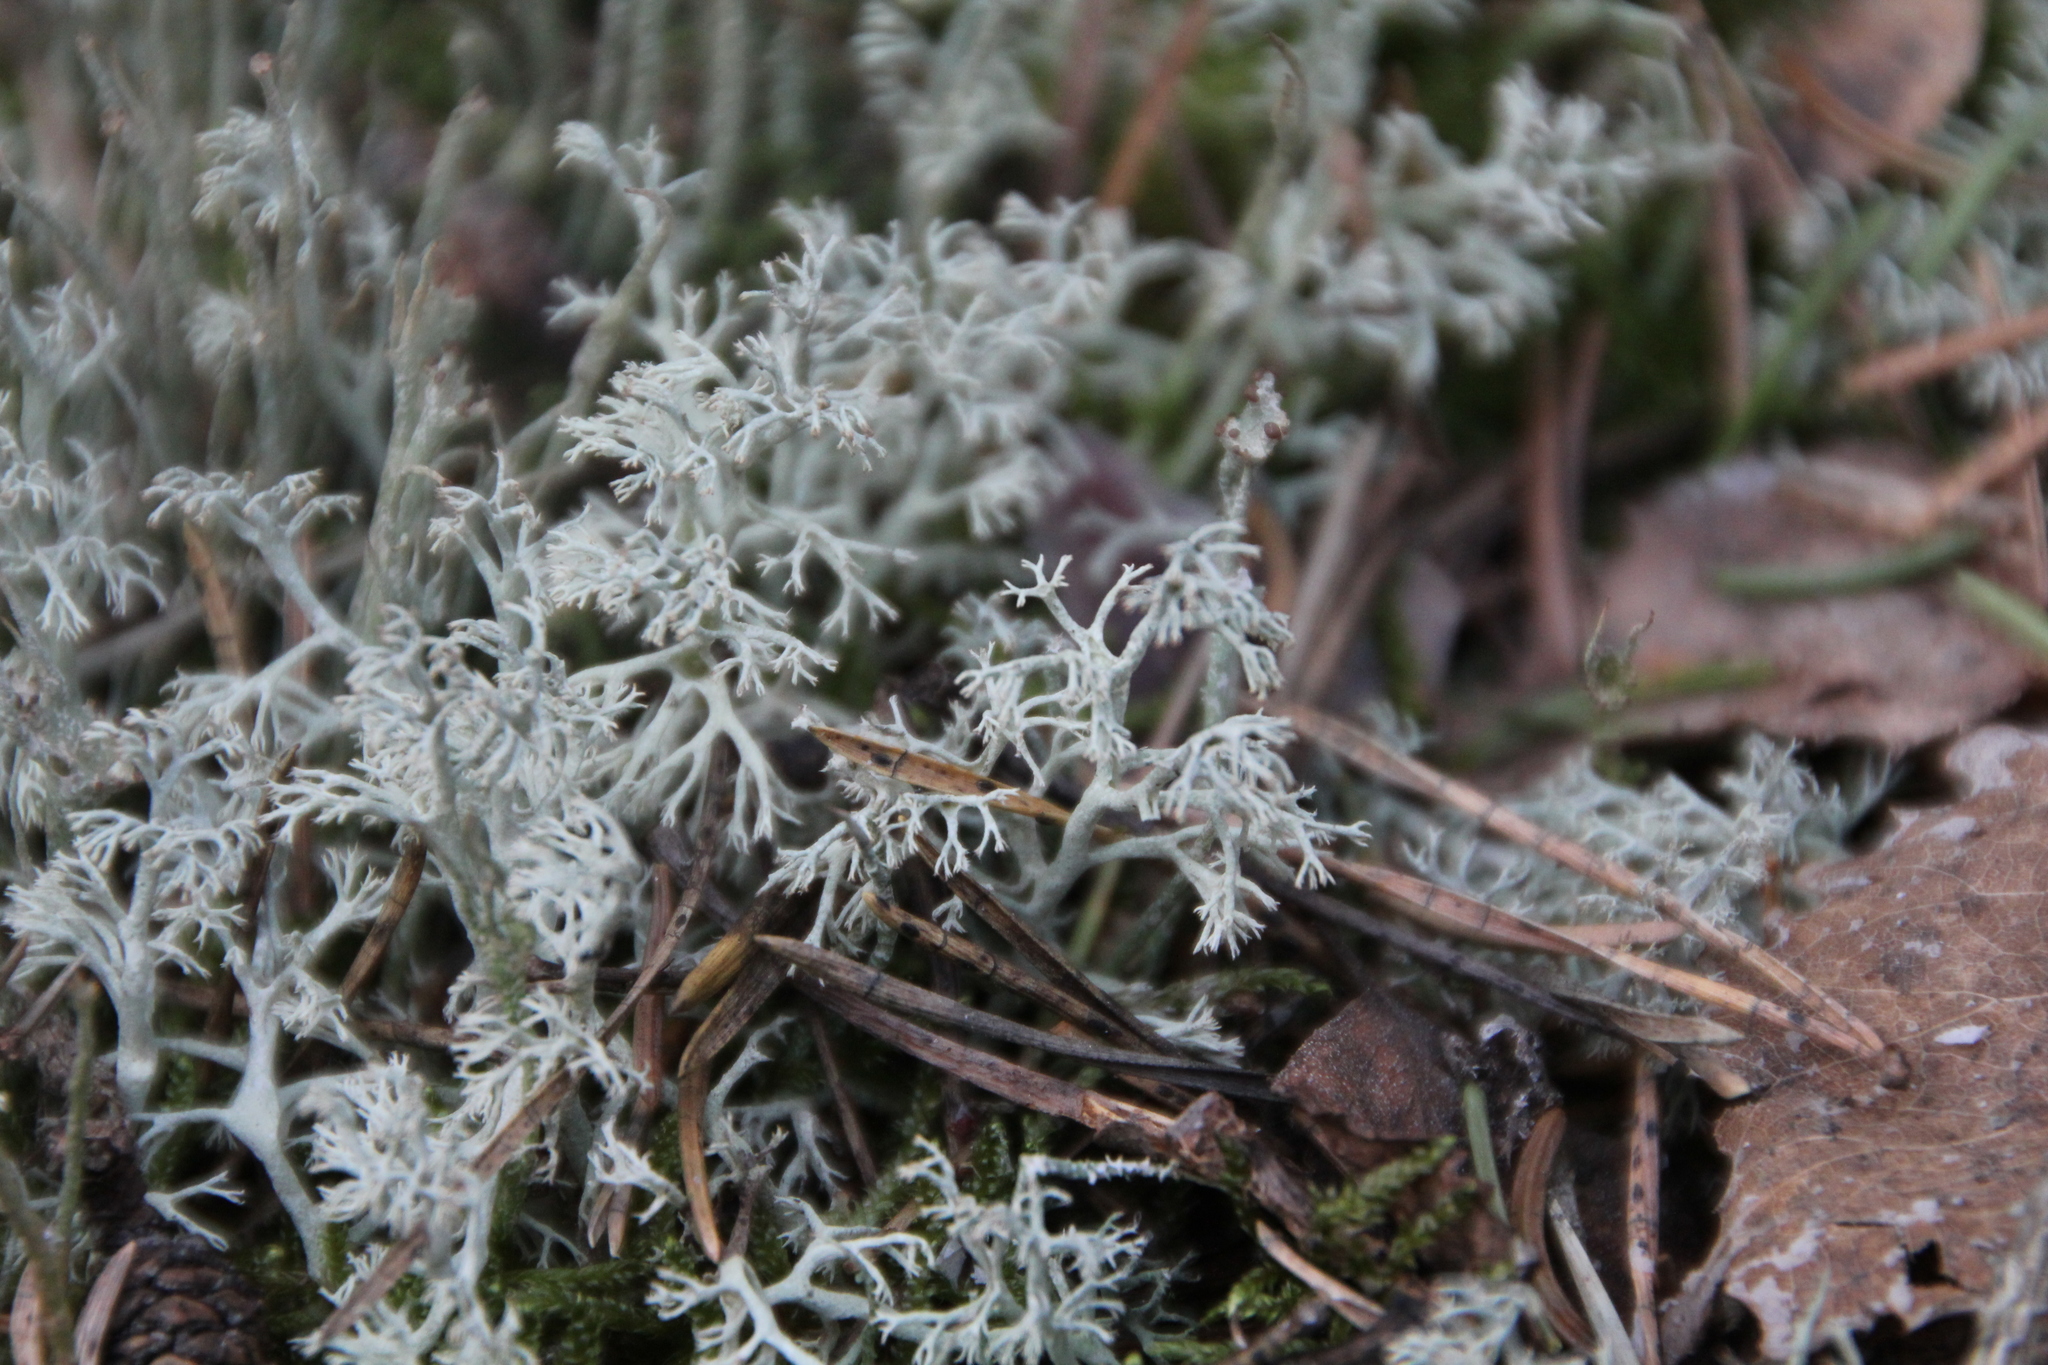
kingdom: Fungi
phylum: Ascomycota
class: Lecanoromycetes
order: Lecanorales
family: Cladoniaceae
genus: Cladonia
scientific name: Cladonia arbuscula
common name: Reindeer lichen
